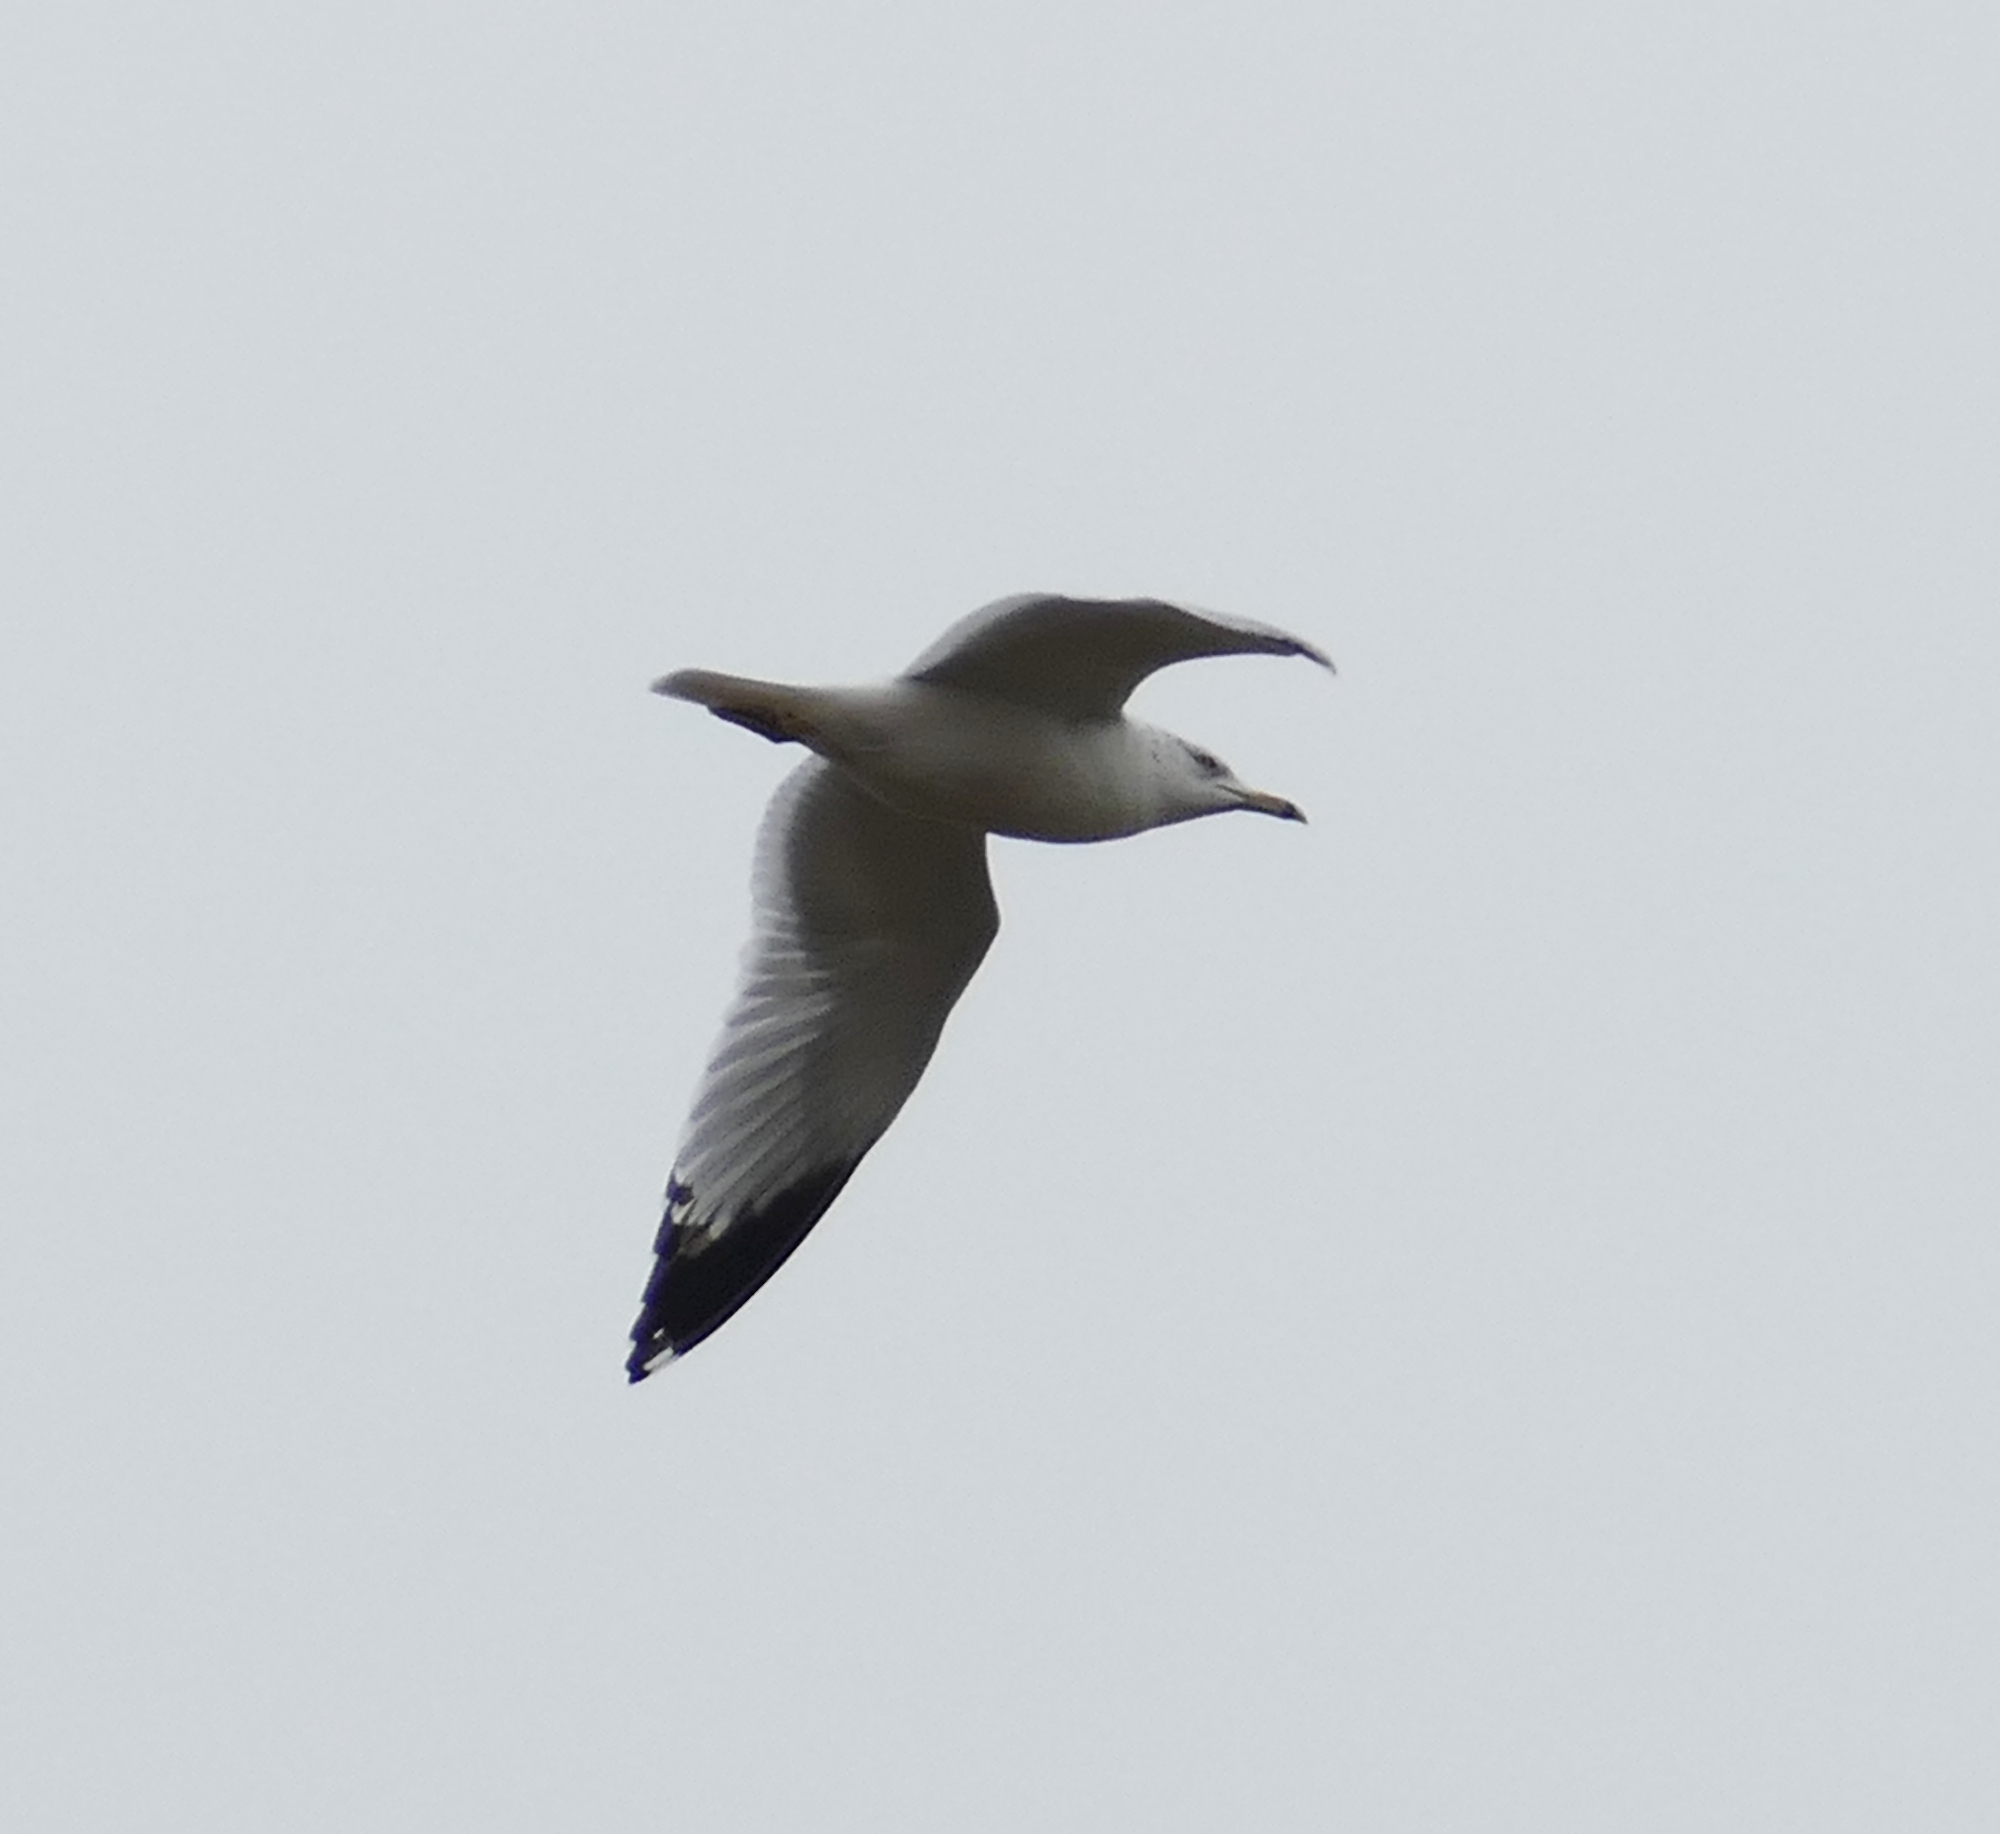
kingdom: Animalia
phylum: Chordata
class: Aves
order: Charadriiformes
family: Laridae
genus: Larus
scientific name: Larus delawarensis
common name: Ring-billed gull
